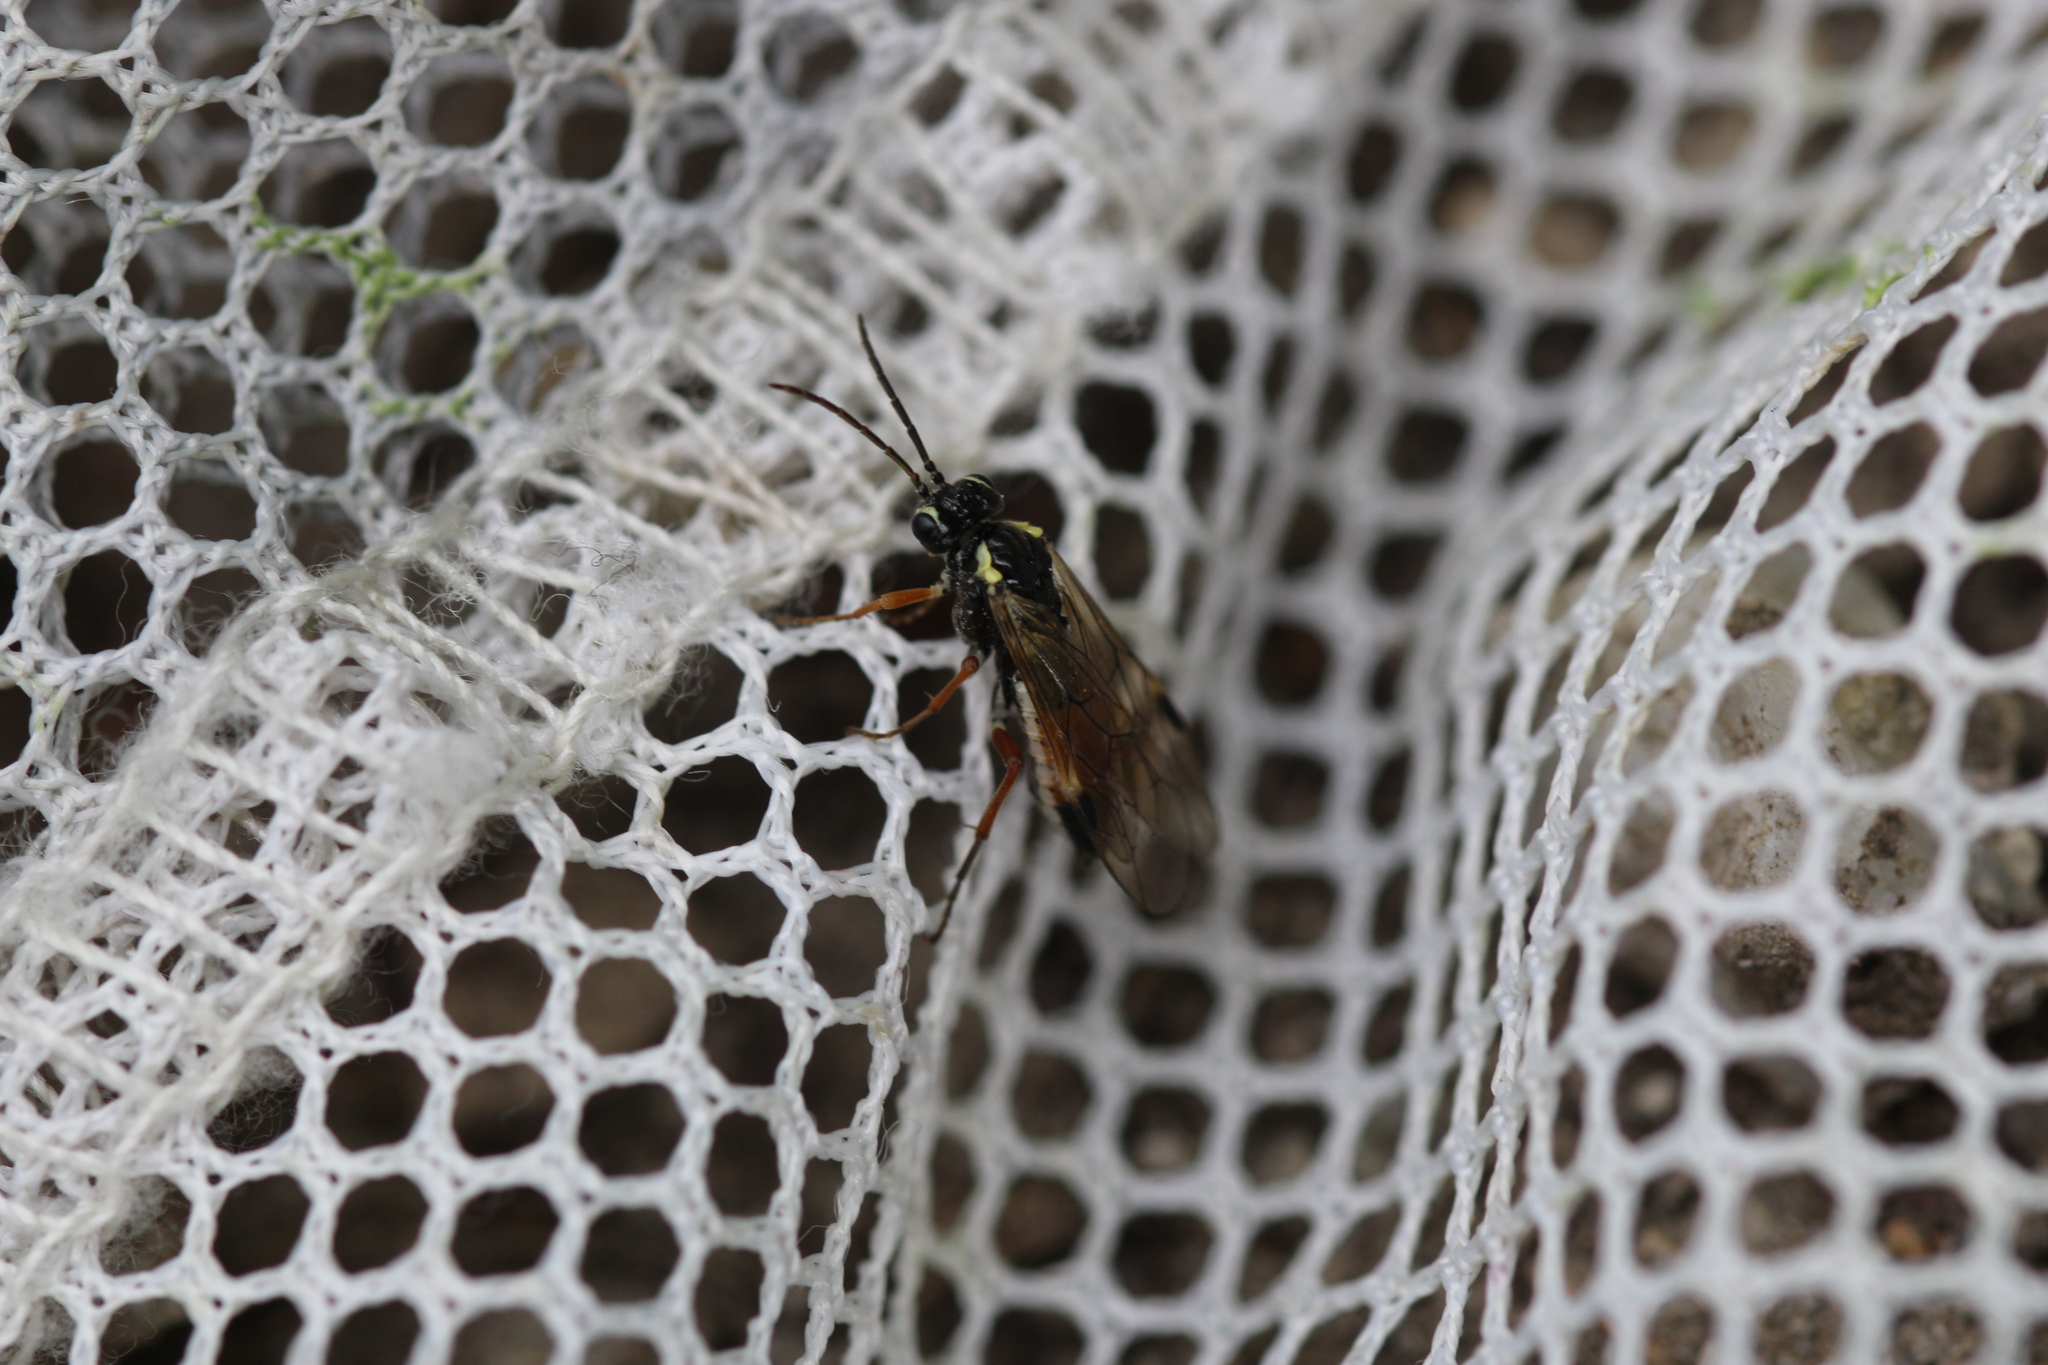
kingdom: Animalia
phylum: Arthropoda
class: Insecta
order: Hymenoptera
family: Tenthredinidae
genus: Aglaostigma
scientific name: Aglaostigma fulvipes
